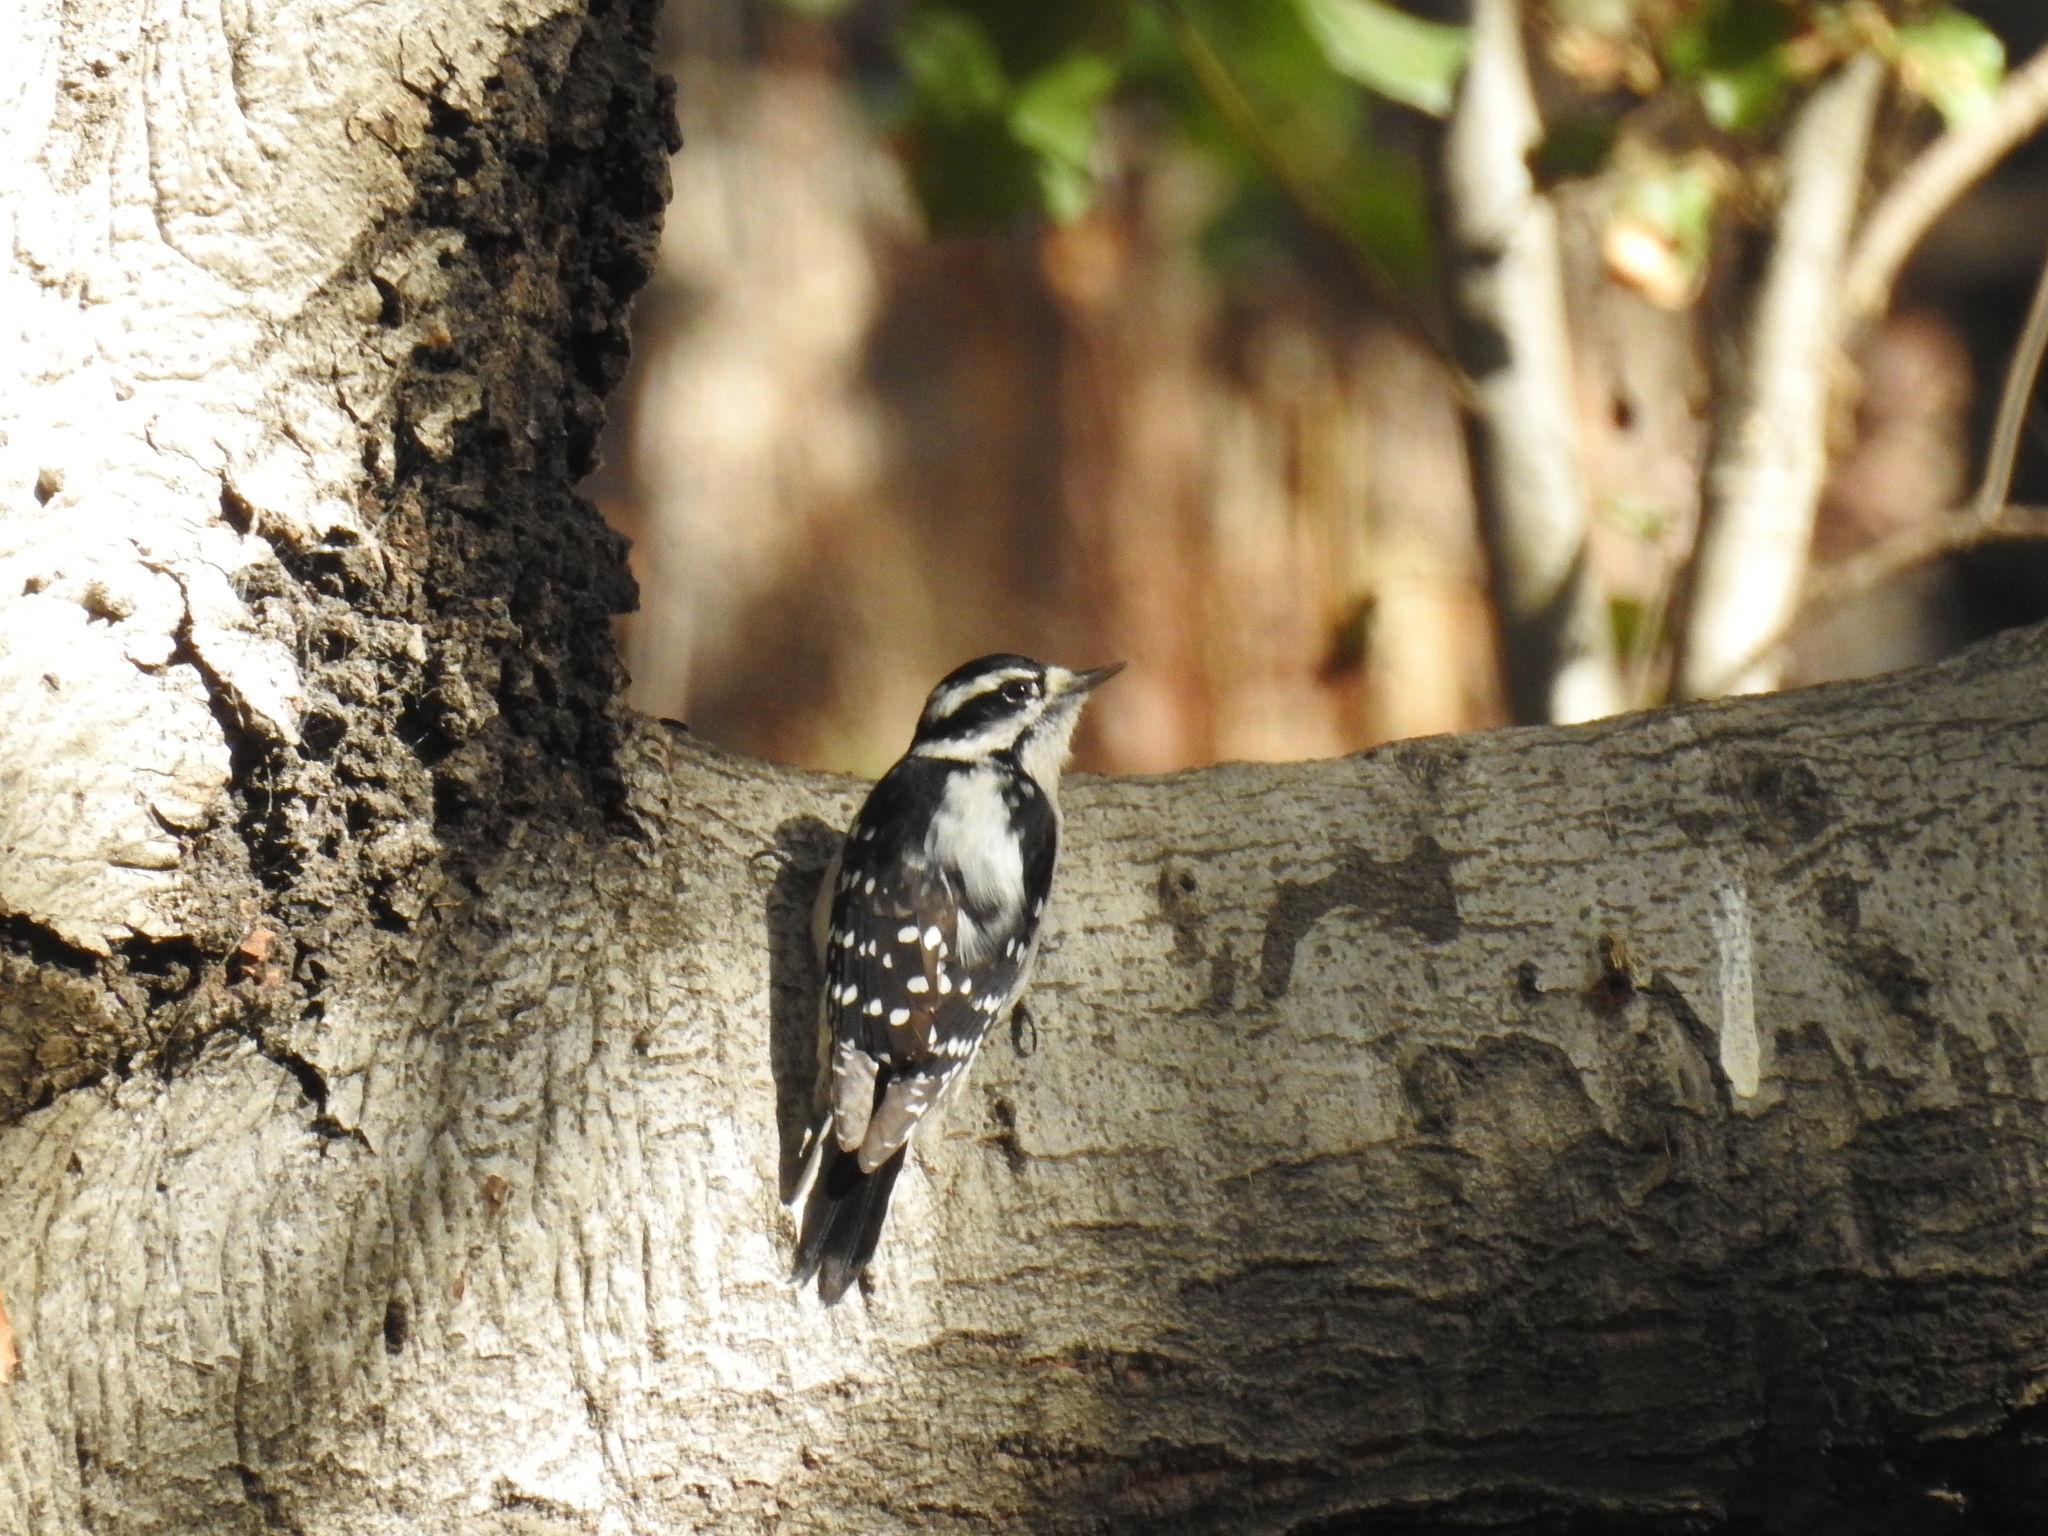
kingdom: Animalia
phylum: Chordata
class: Aves
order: Piciformes
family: Picidae
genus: Dryobates
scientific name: Dryobates pubescens
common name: Downy woodpecker
